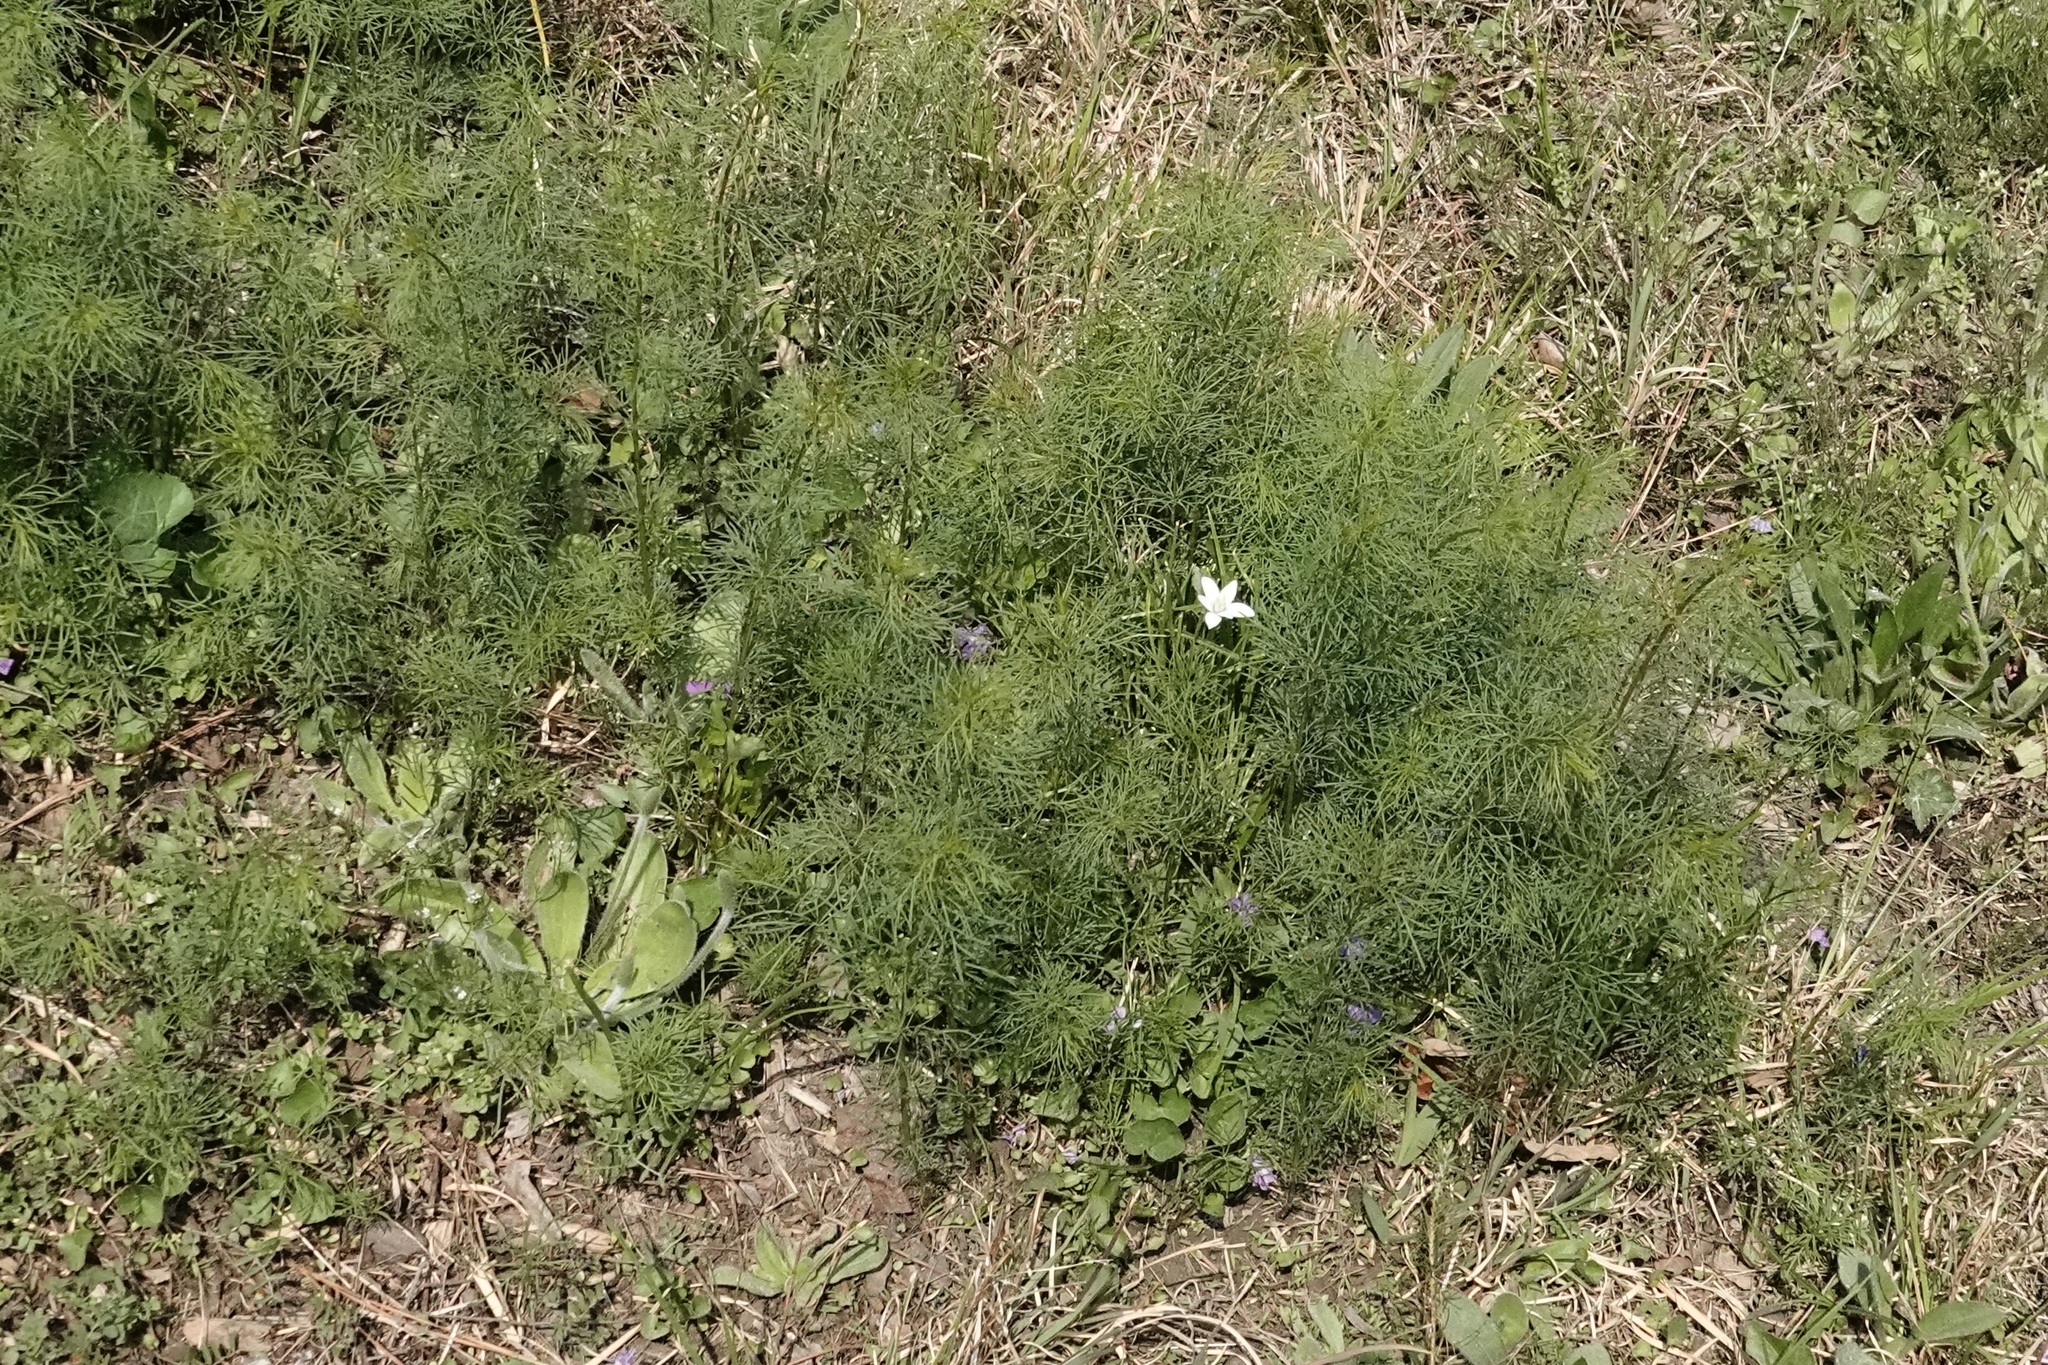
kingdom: Plantae
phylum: Tracheophyta
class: Liliopsida
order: Asparagales
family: Asparagaceae
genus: Ornithogalum
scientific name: Ornithogalum umbellatum
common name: Garden star-of-bethlehem
